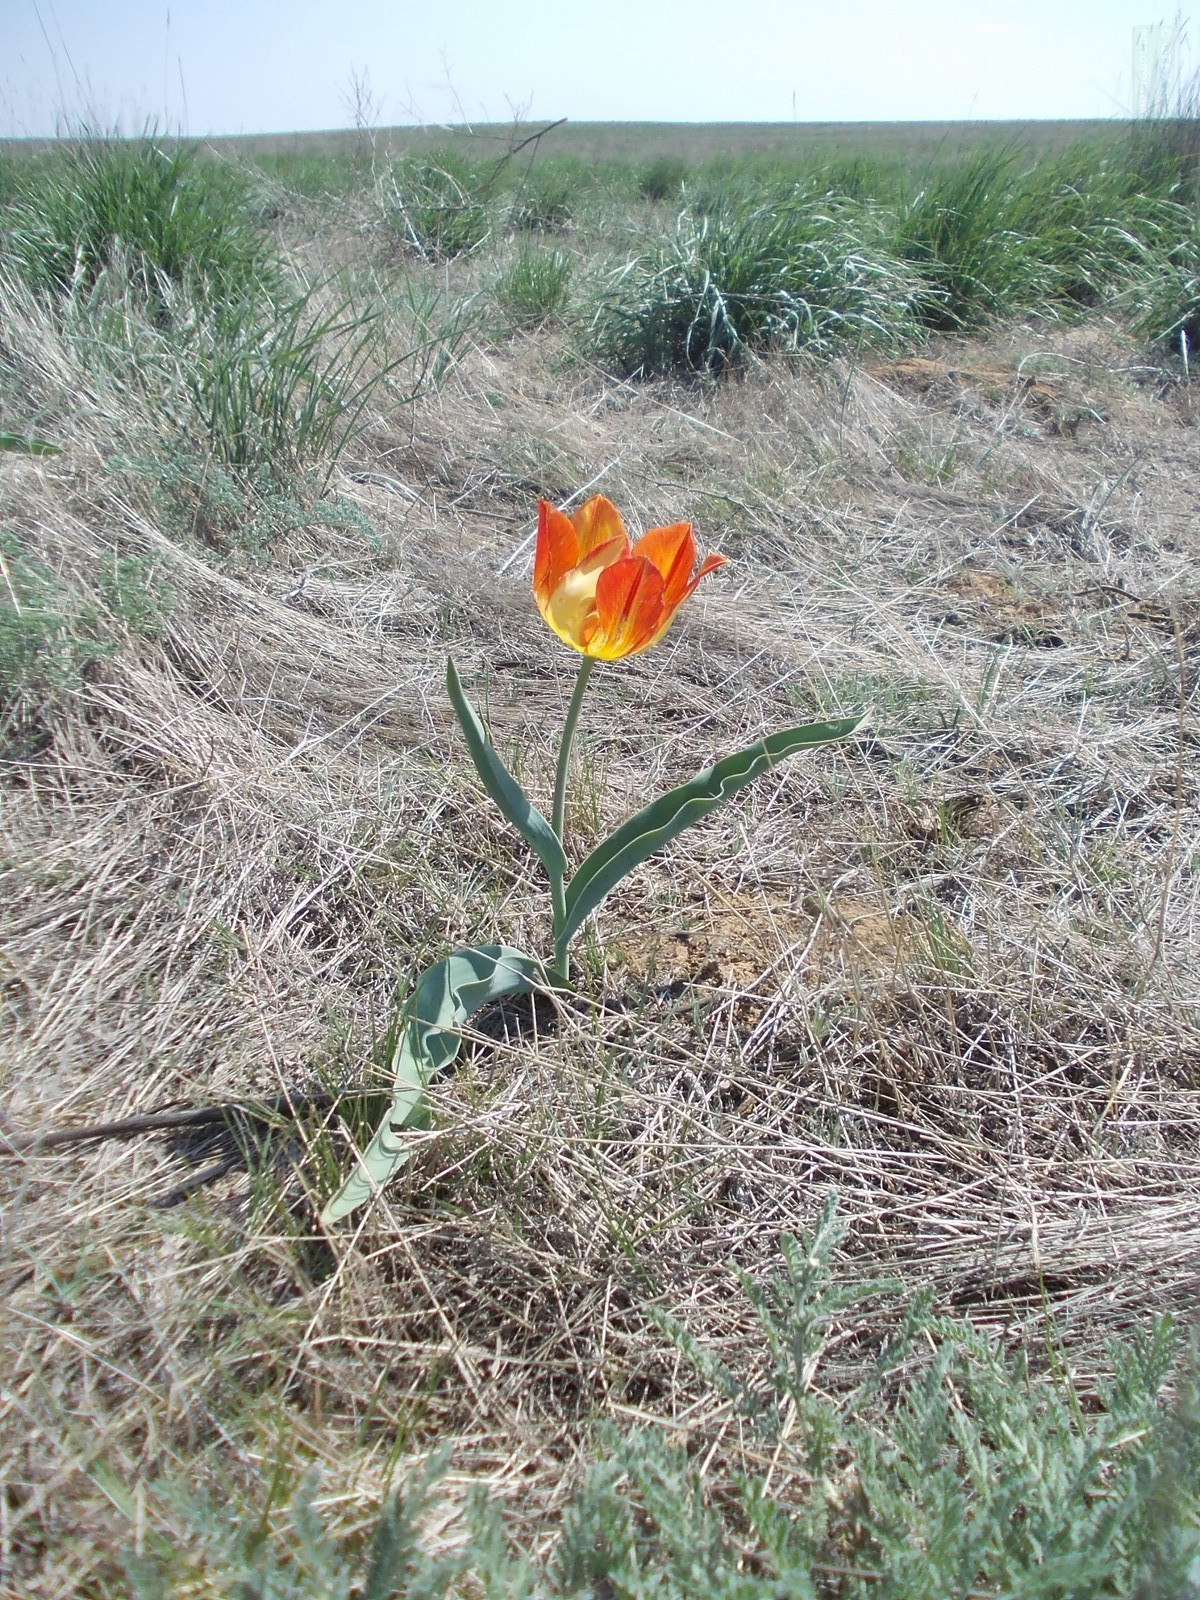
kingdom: Plantae
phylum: Tracheophyta
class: Liliopsida
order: Liliales
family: Liliaceae
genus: Tulipa
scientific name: Tulipa suaveolens
